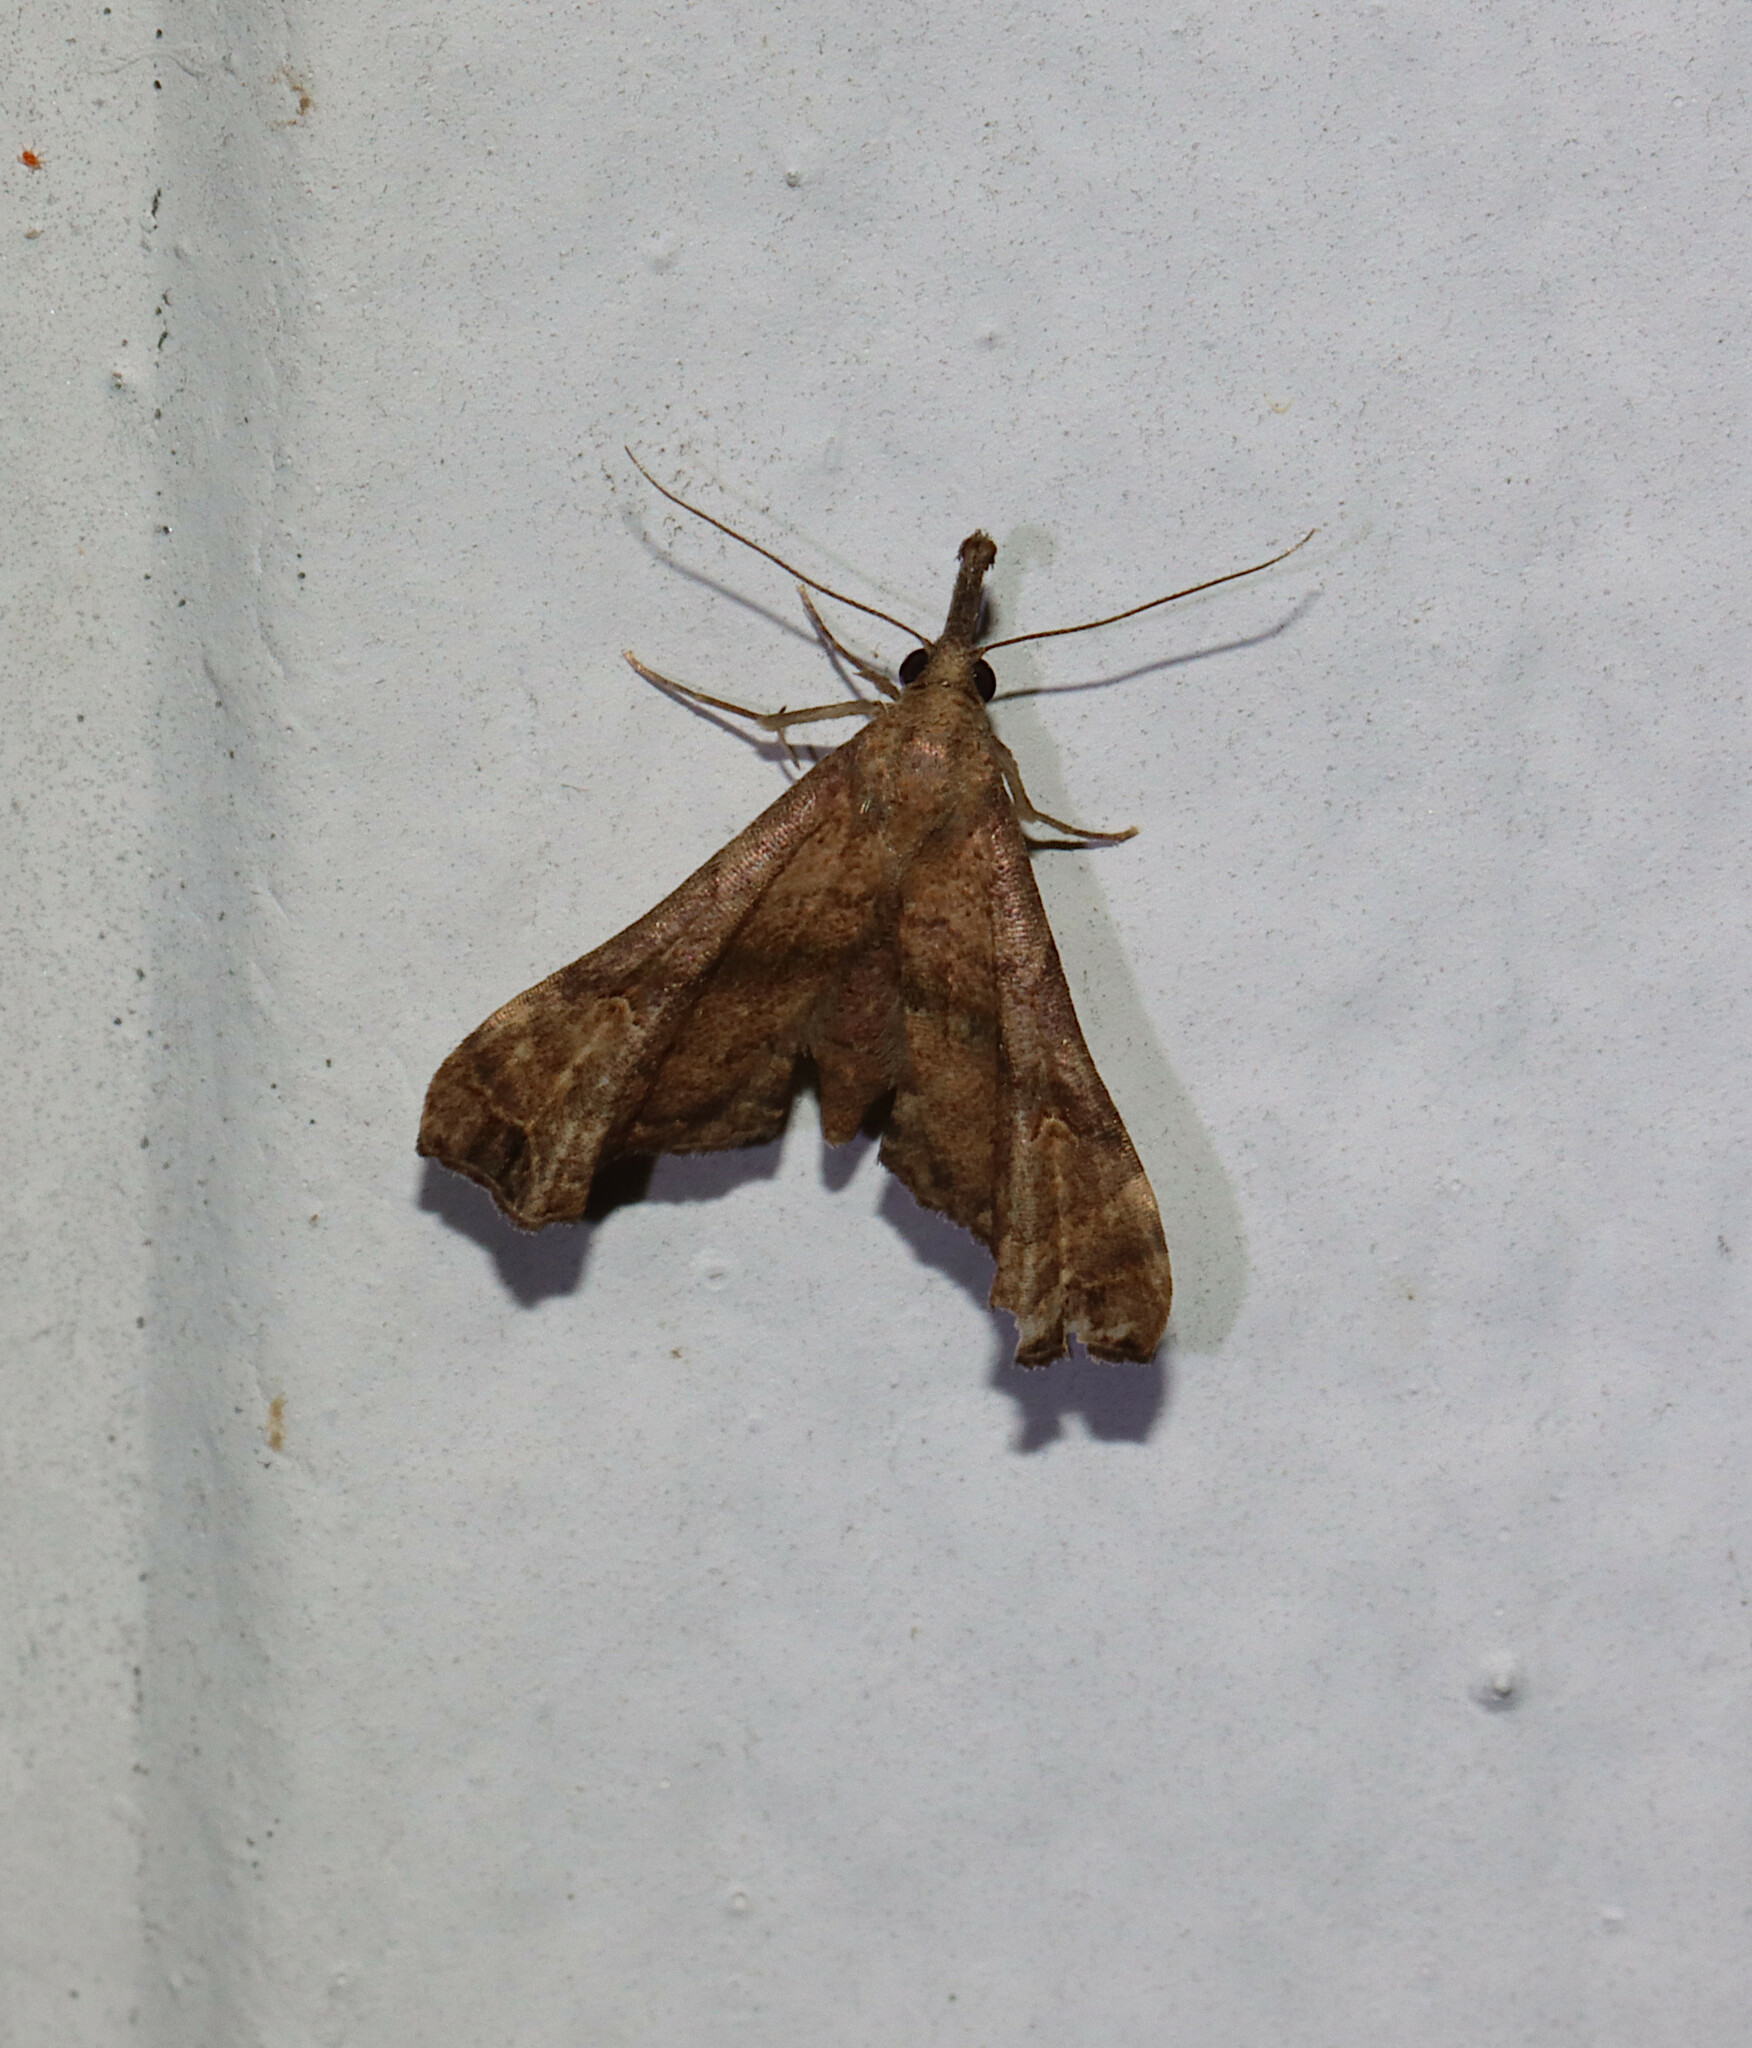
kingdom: Animalia
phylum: Arthropoda
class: Insecta
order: Lepidoptera
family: Erebidae
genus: Palthis
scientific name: Palthis asopialis
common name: Faint-spotted palthis moth
